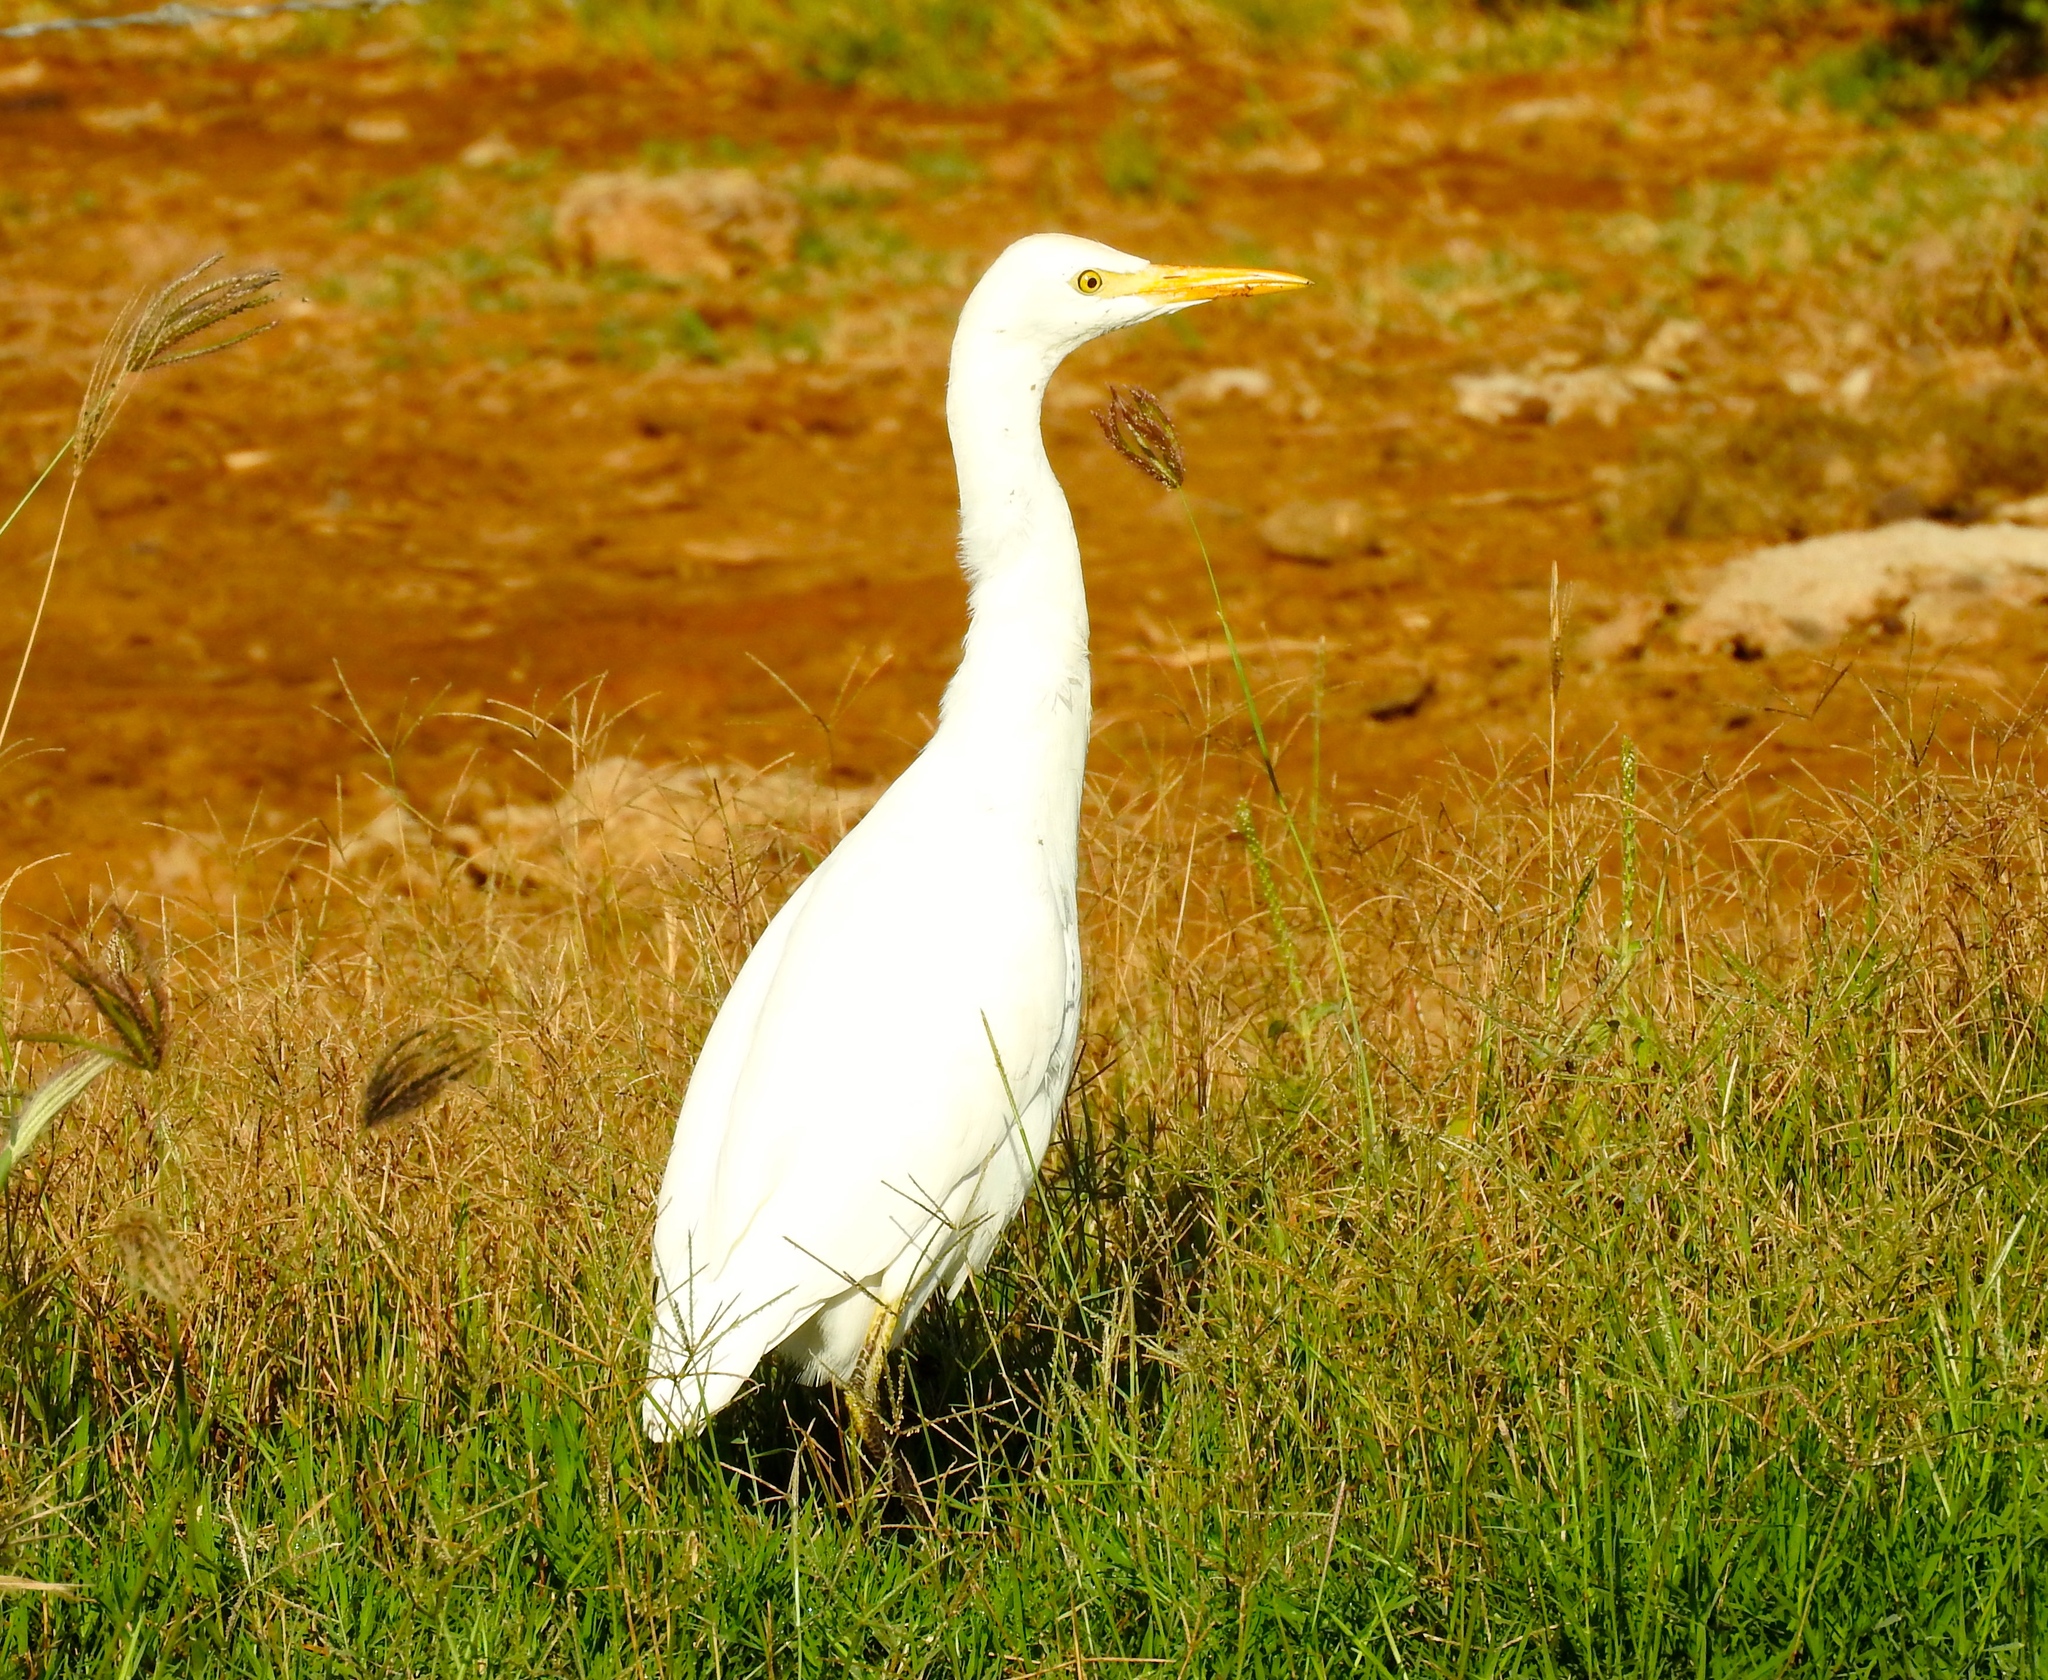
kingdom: Animalia
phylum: Chordata
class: Aves
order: Pelecaniformes
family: Ardeidae
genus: Bubulcus
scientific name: Bubulcus ibis
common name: Cattle egret
